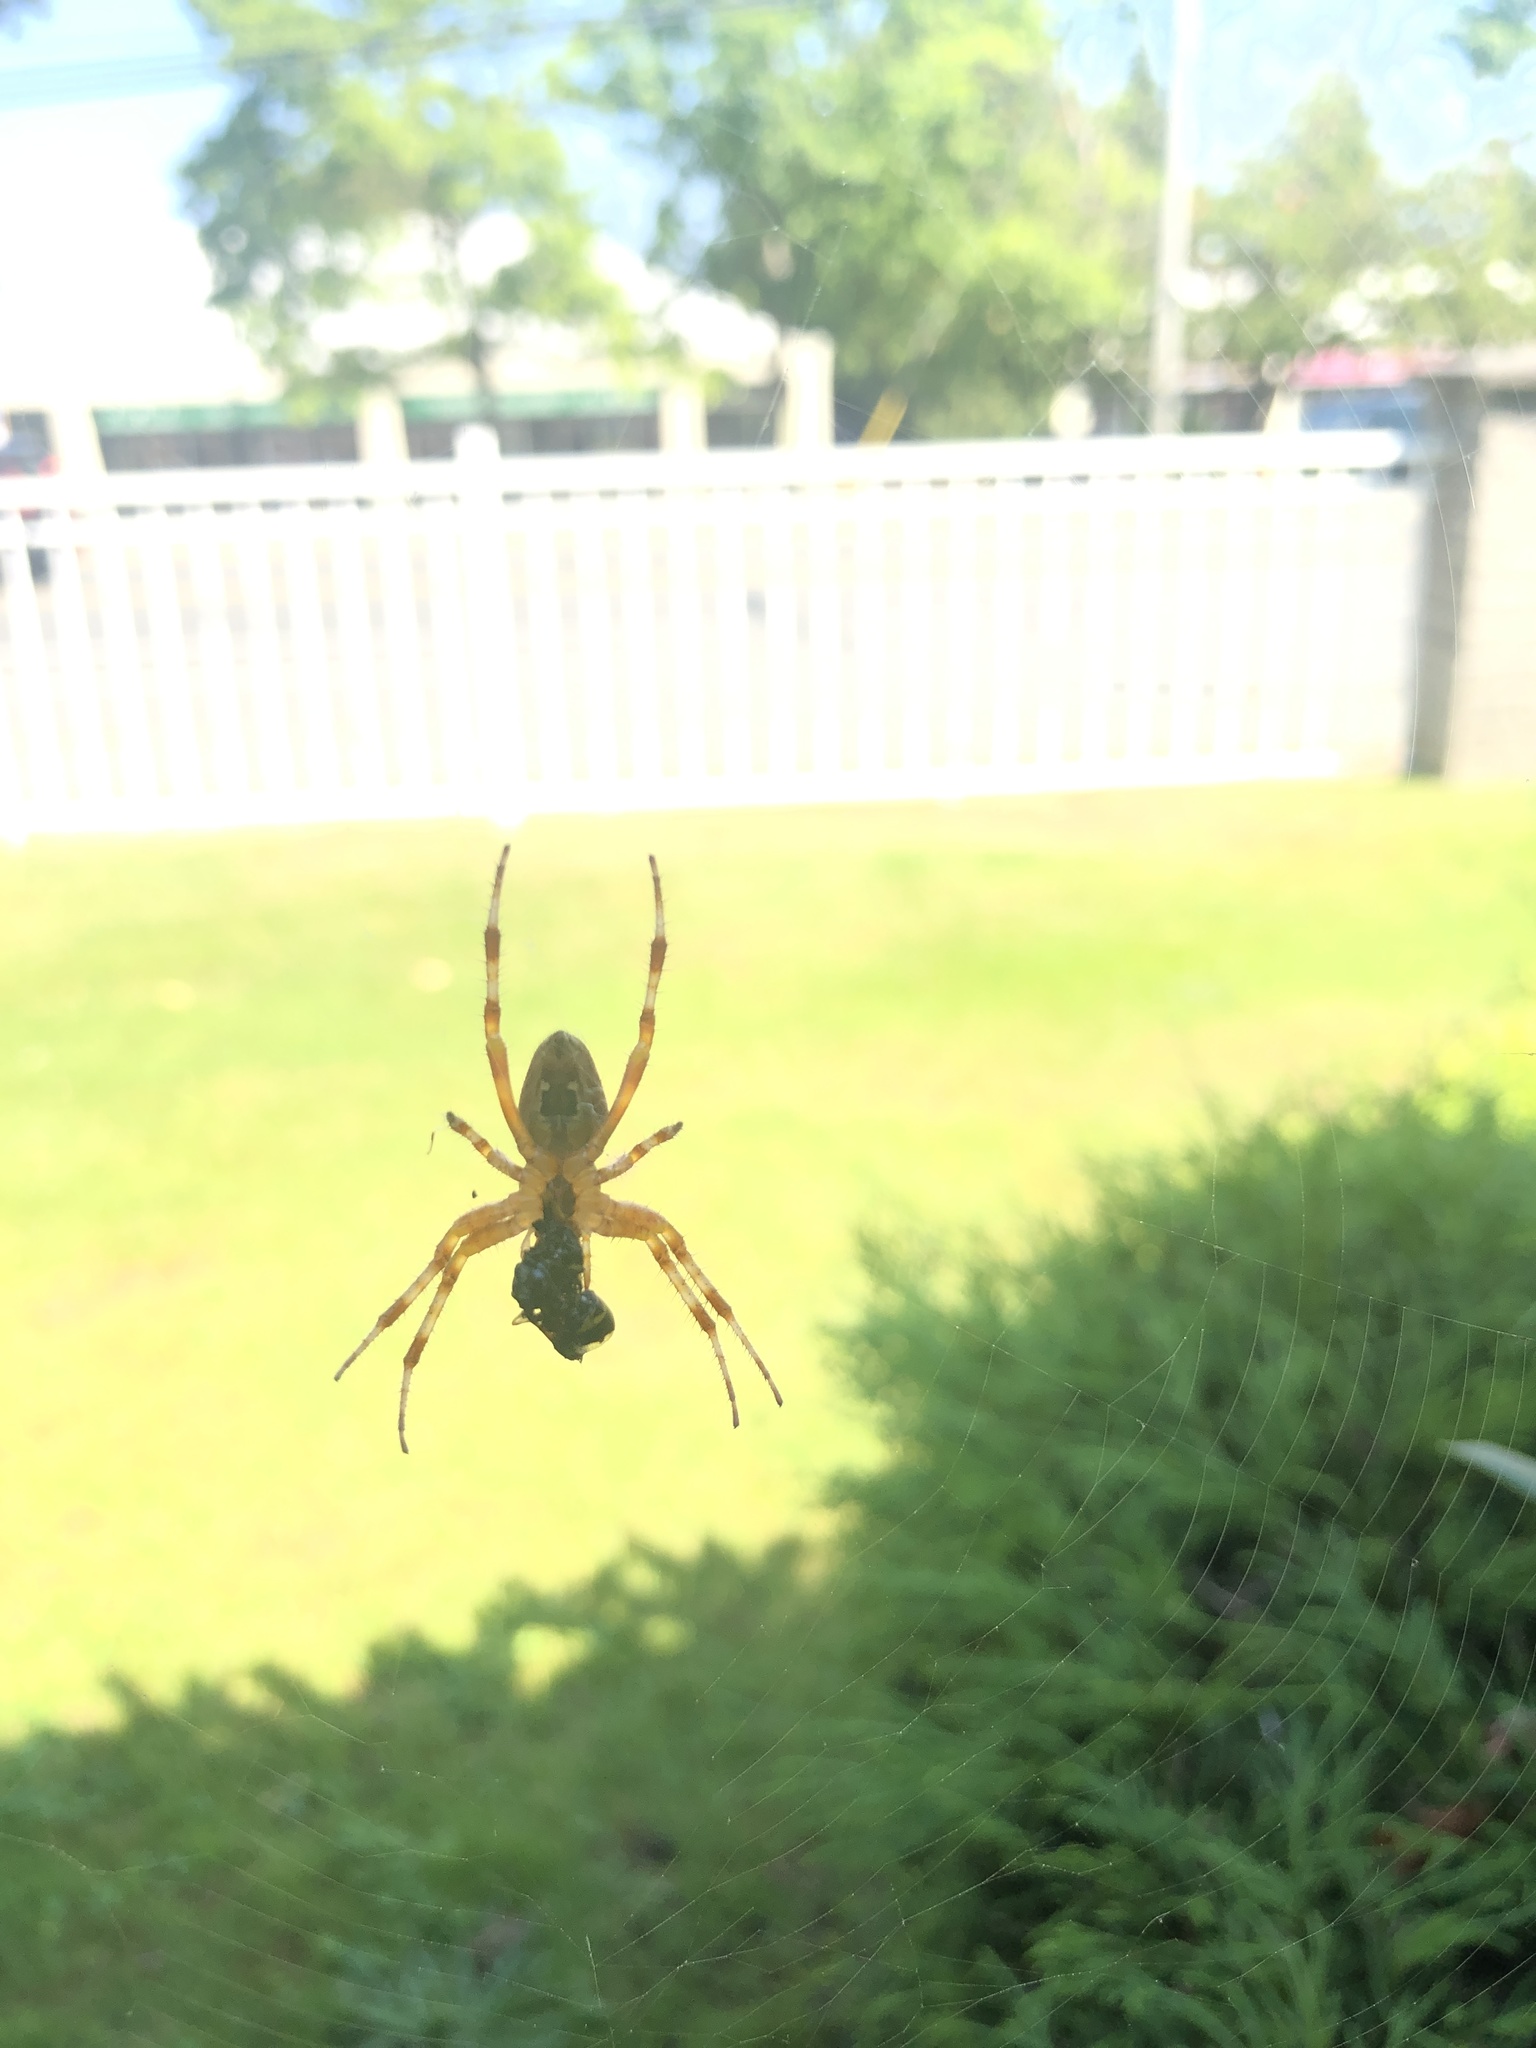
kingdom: Animalia
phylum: Arthropoda
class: Arachnida
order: Araneae
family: Araneidae
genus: Araneus
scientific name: Araneus diadematus
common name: Cross orbweaver
